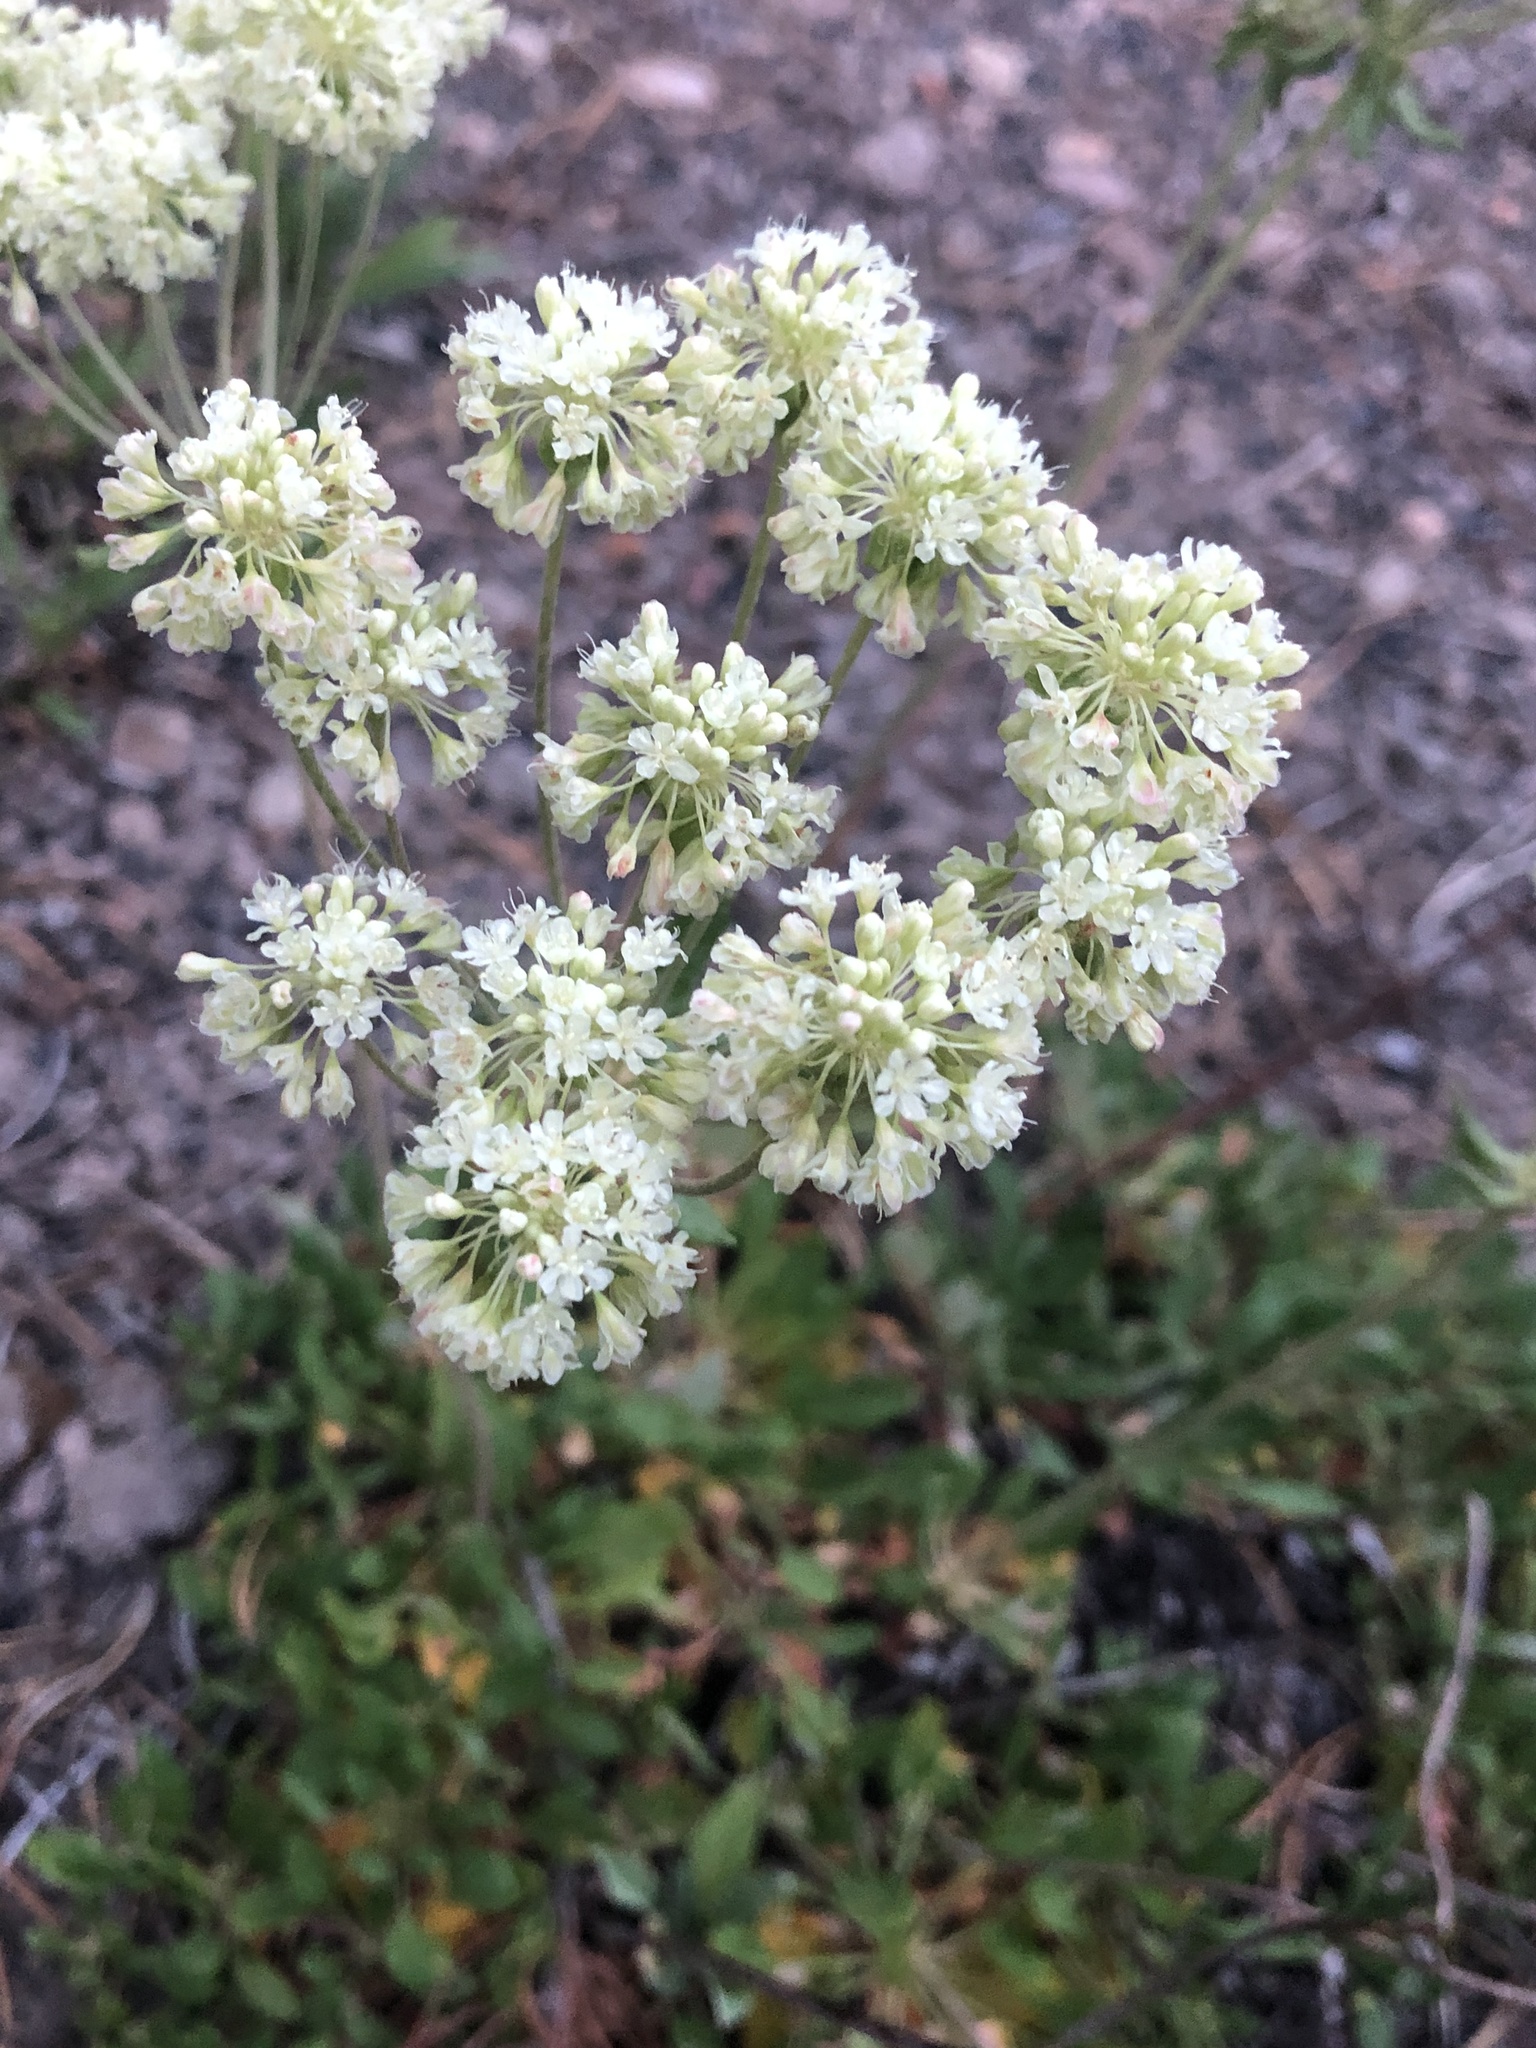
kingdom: Plantae
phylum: Tracheophyta
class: Magnoliopsida
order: Caryophyllales
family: Polygonaceae
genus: Eriogonum
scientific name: Eriogonum umbellatum
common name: Sulfur-buckwheat
